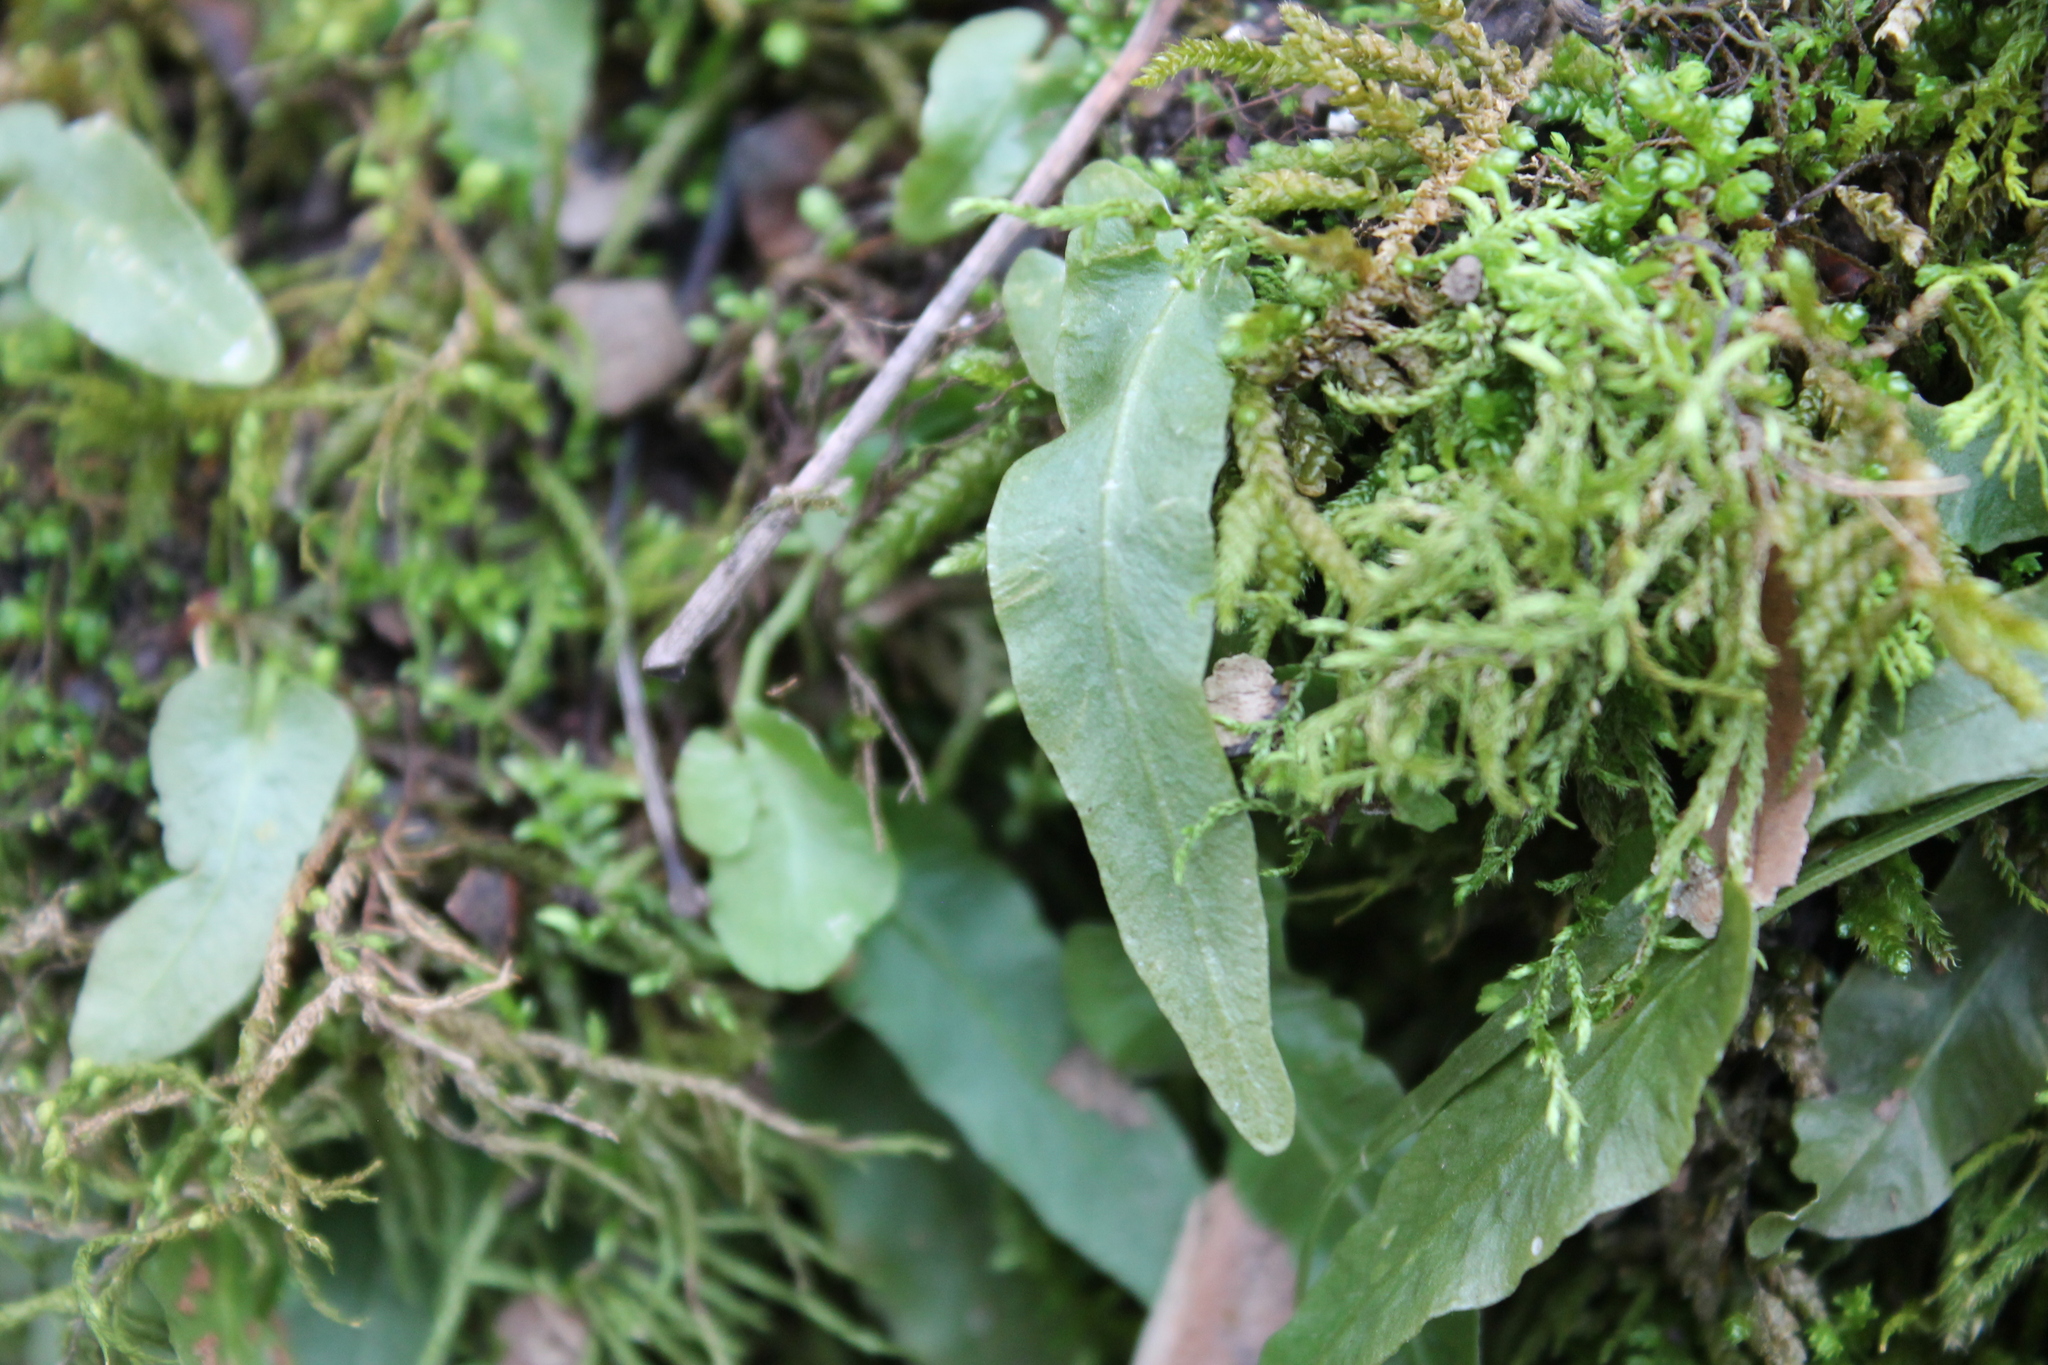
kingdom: Plantae
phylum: Tracheophyta
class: Polypodiopsida
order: Polypodiales
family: Aspleniaceae
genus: Asplenium
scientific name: Asplenium rhizophyllum
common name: Walking fern
